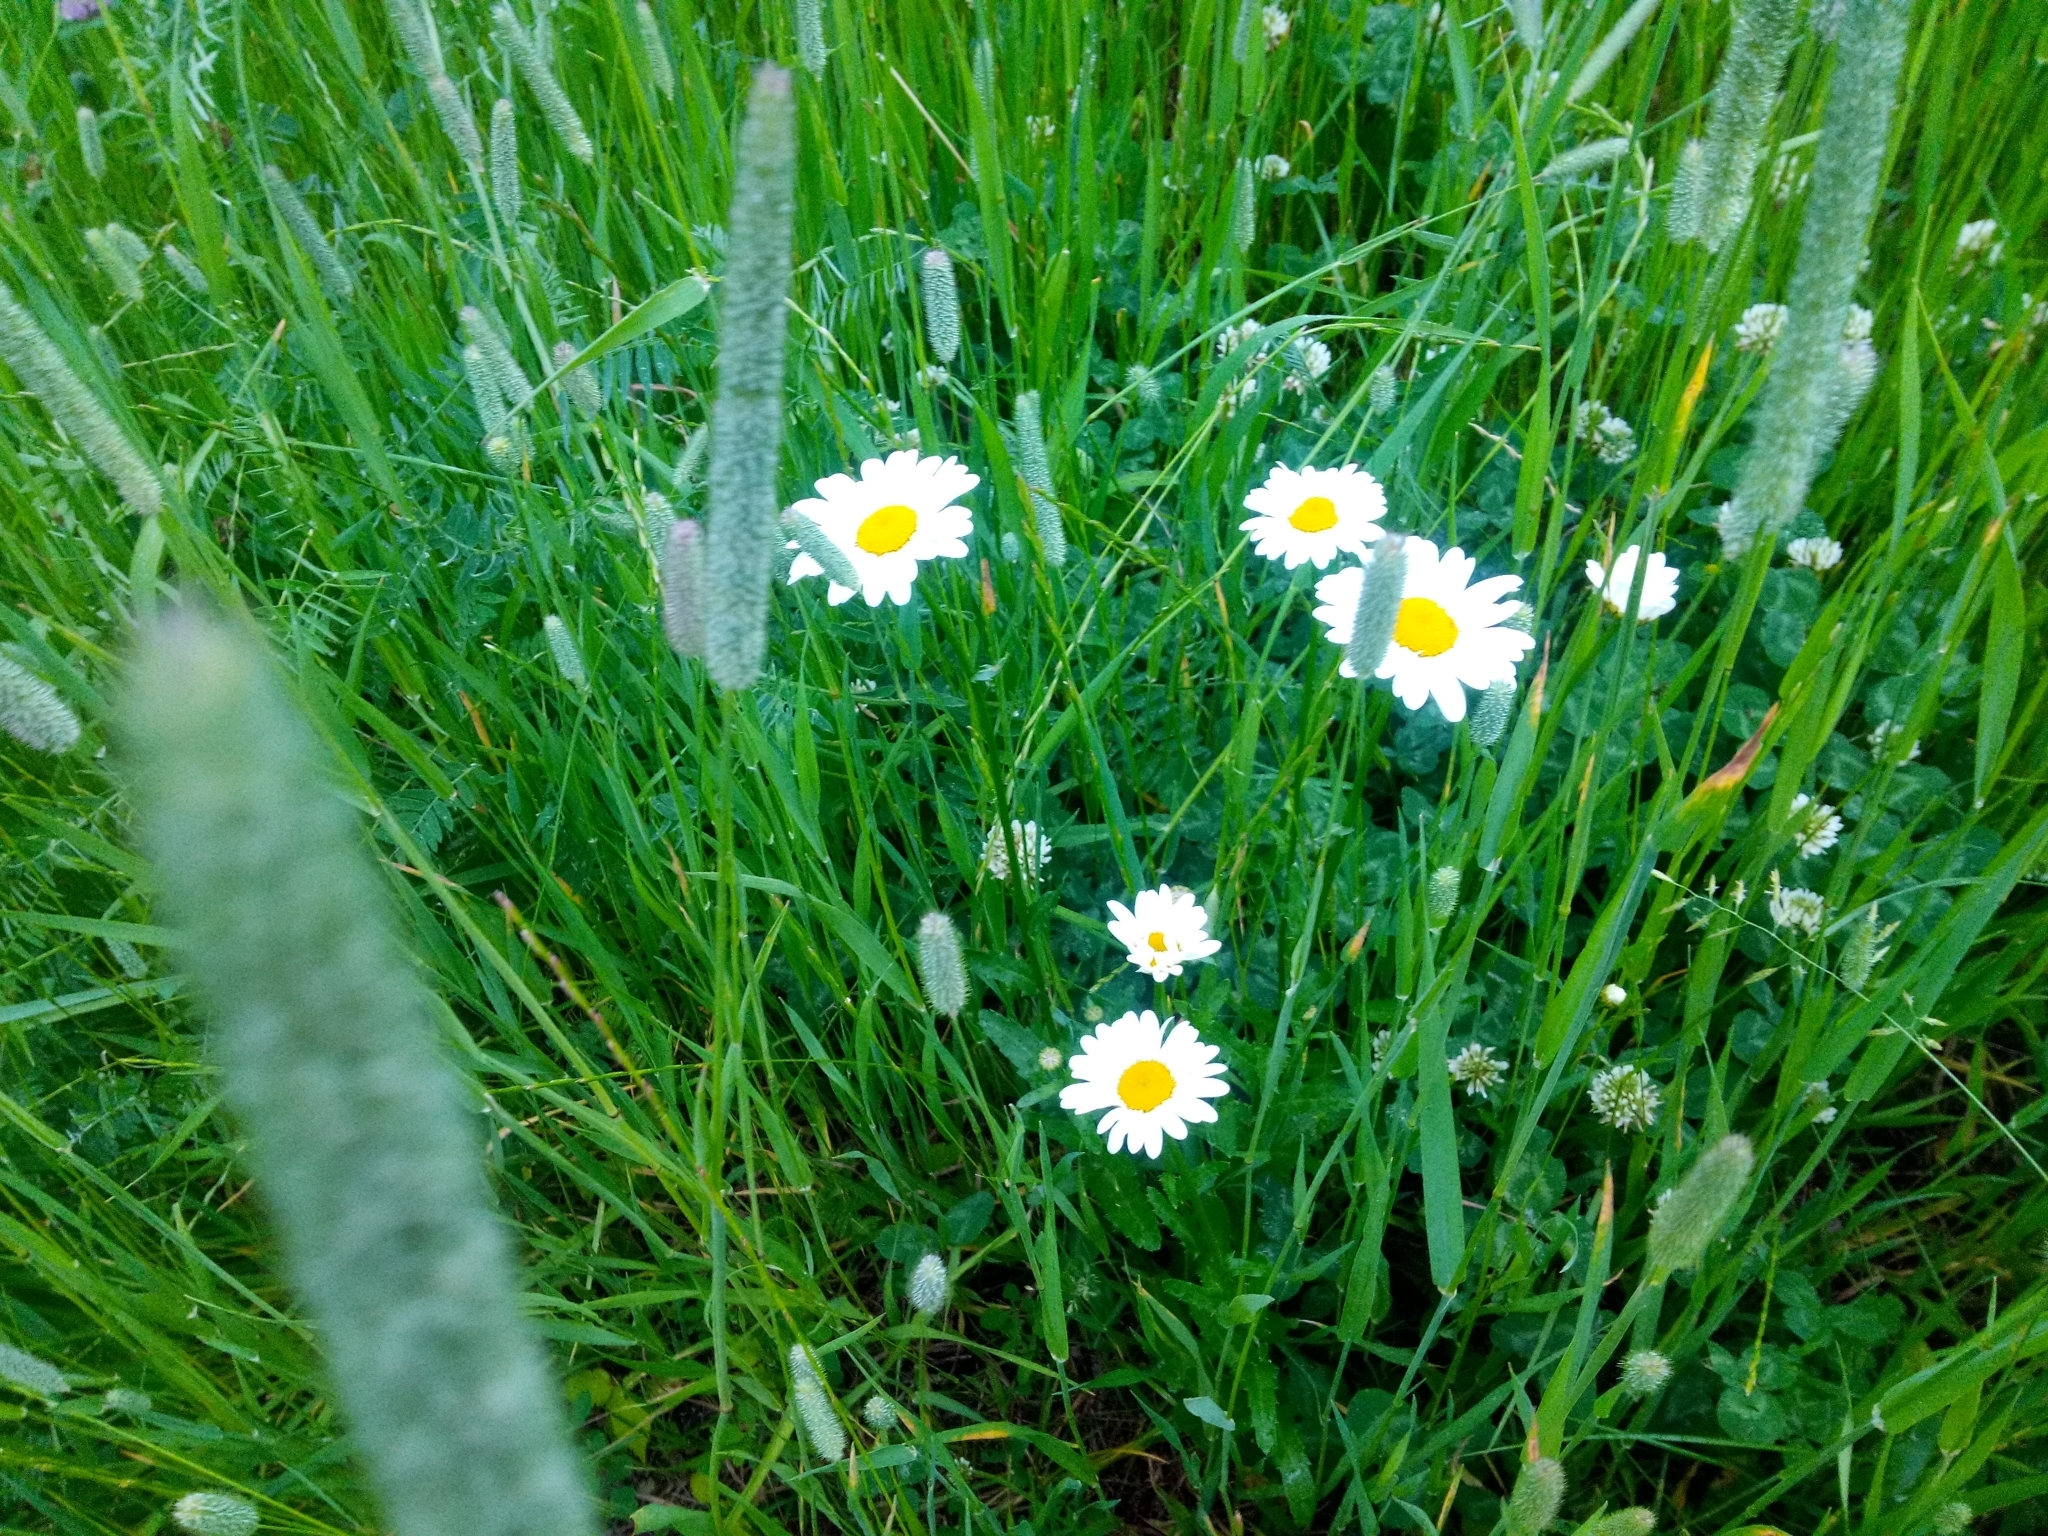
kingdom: Plantae
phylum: Tracheophyta
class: Magnoliopsida
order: Asterales
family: Asteraceae
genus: Leucanthemum
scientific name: Leucanthemum vulgare
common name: Oxeye daisy
